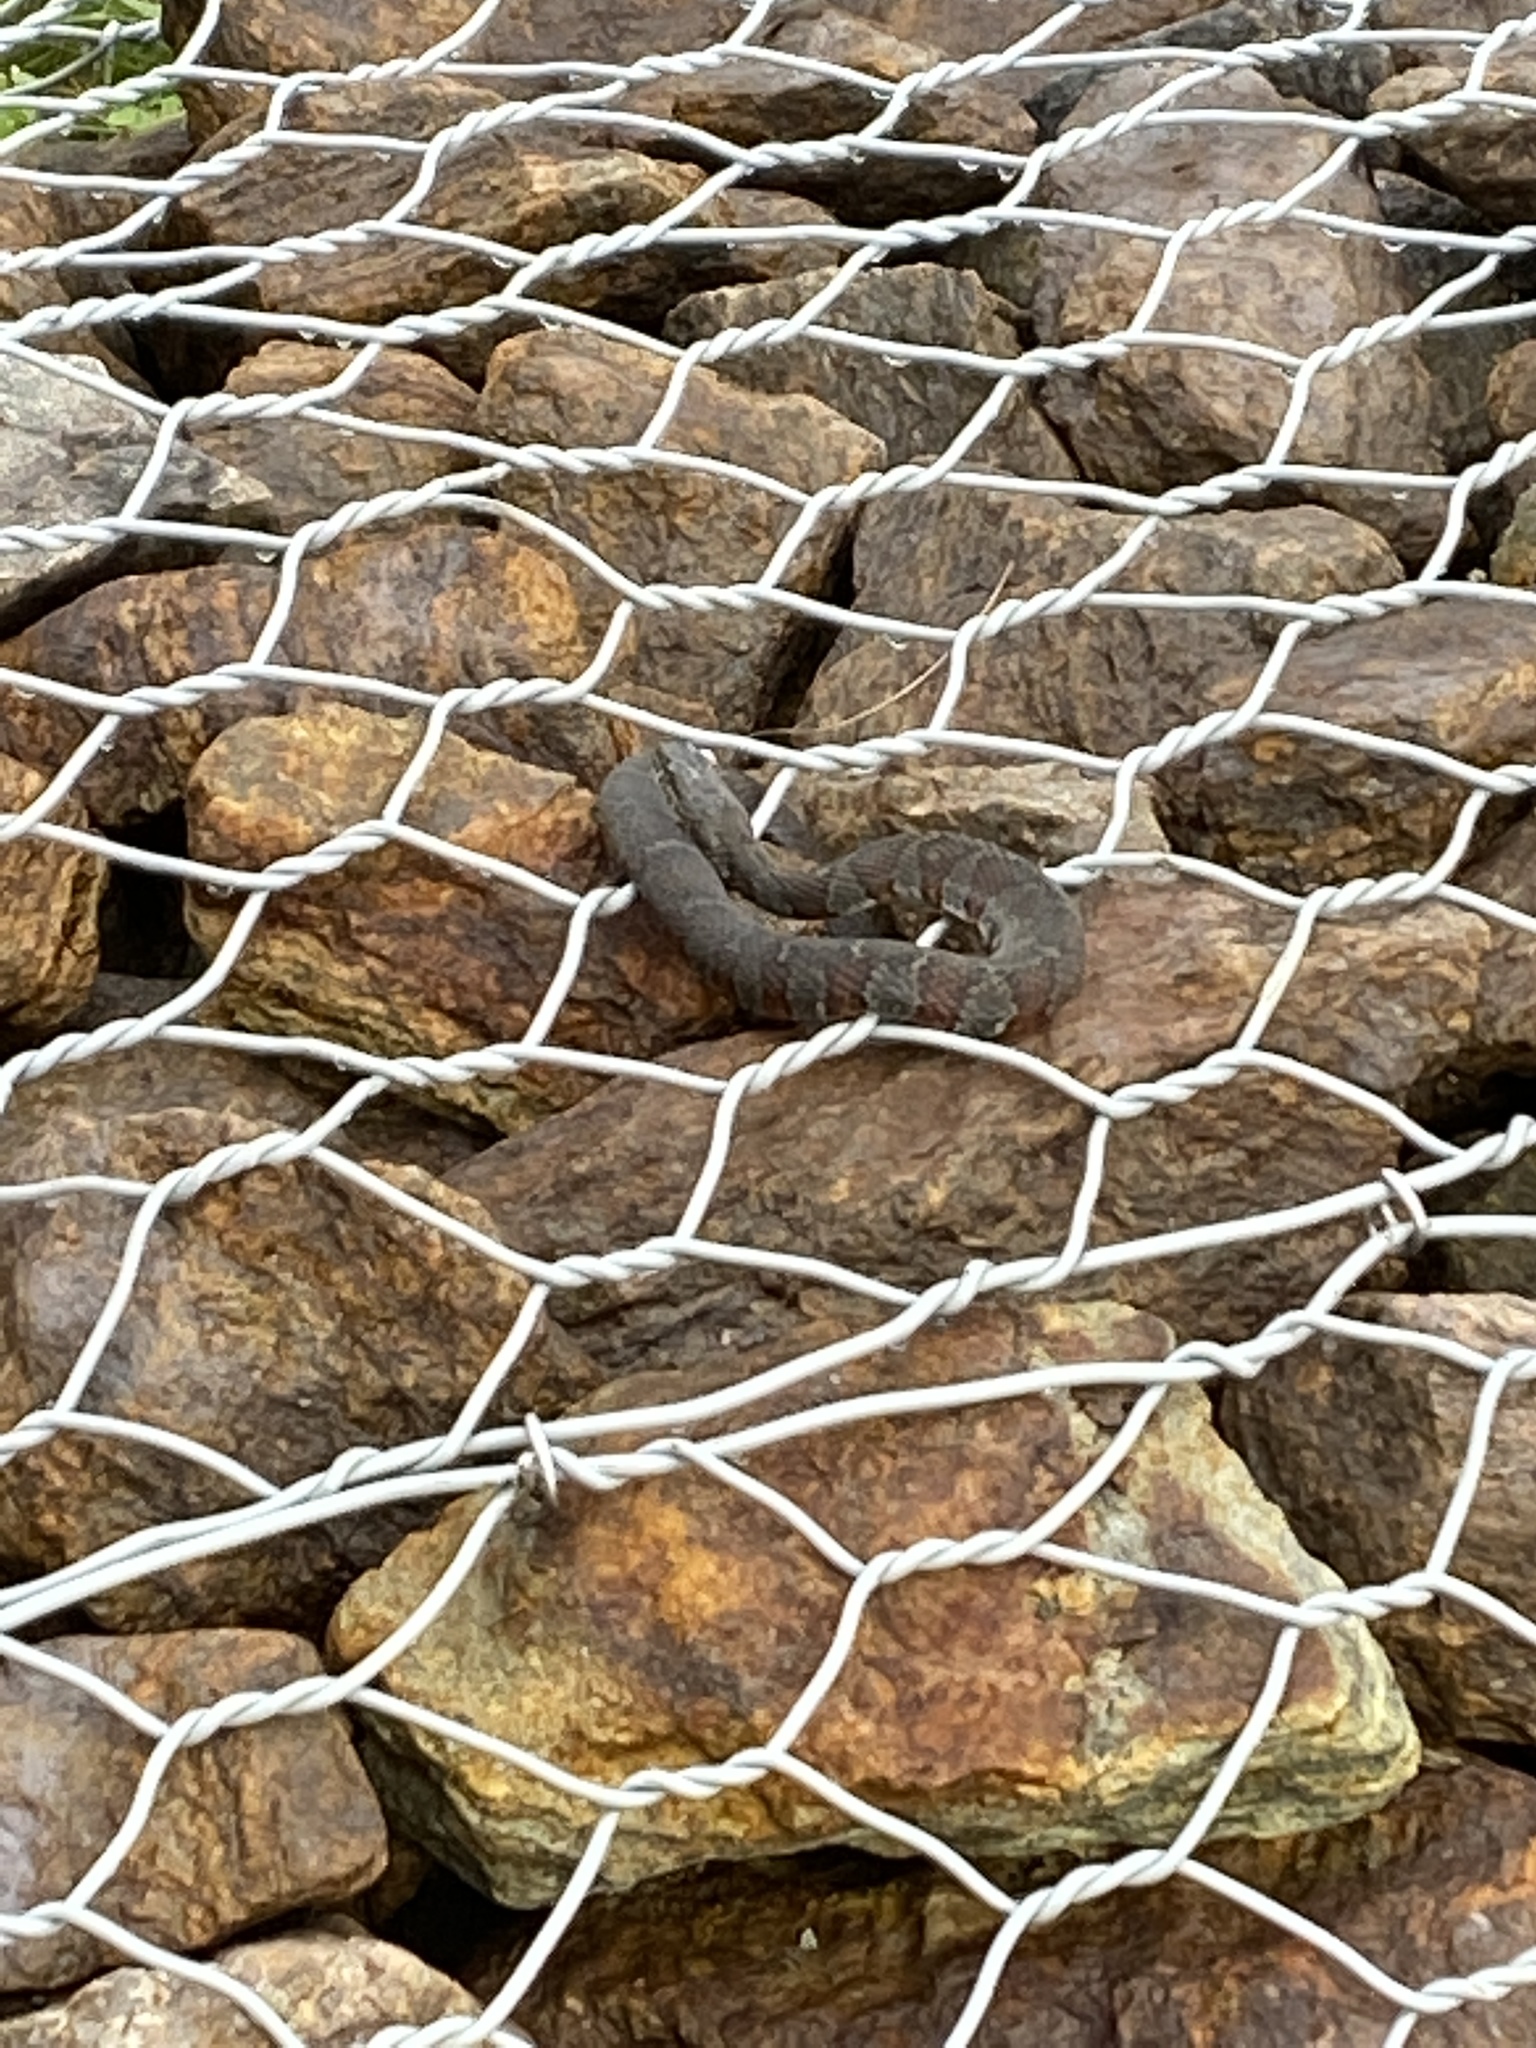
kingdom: Animalia
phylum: Chordata
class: Squamata
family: Colubridae
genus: Nerodia
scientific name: Nerodia sipedon
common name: Northern water snake
